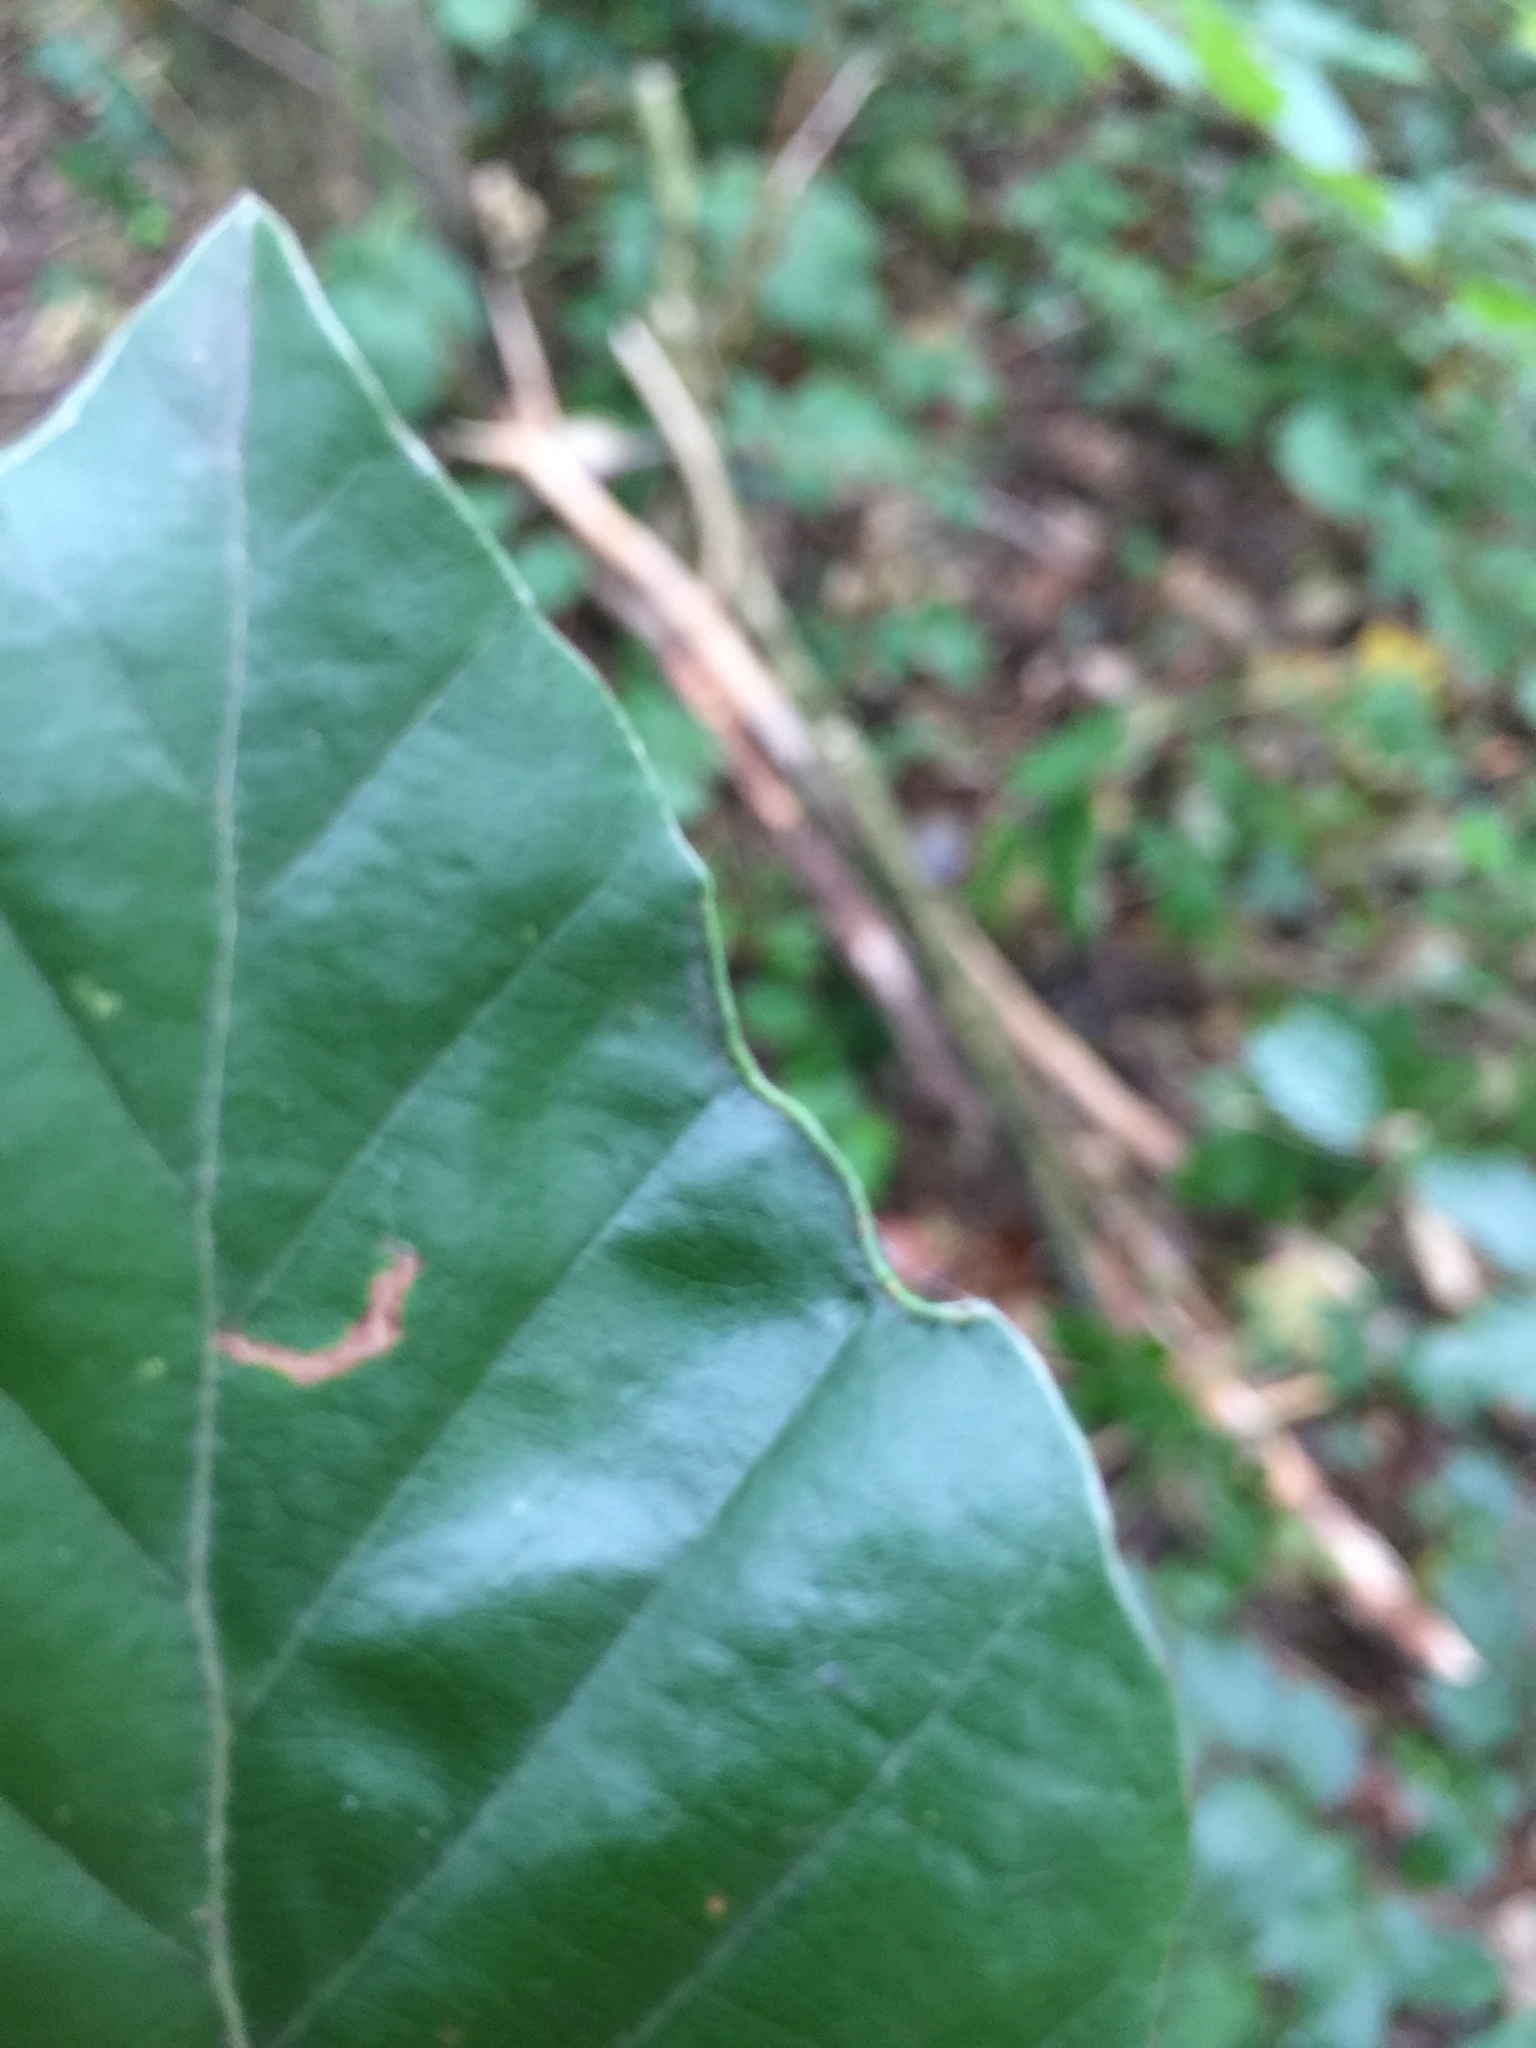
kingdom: Animalia
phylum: Arthropoda
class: Arachnida
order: Trombidiformes
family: Eriophyidae
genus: Acalitus
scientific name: Acalitus stenaspis
